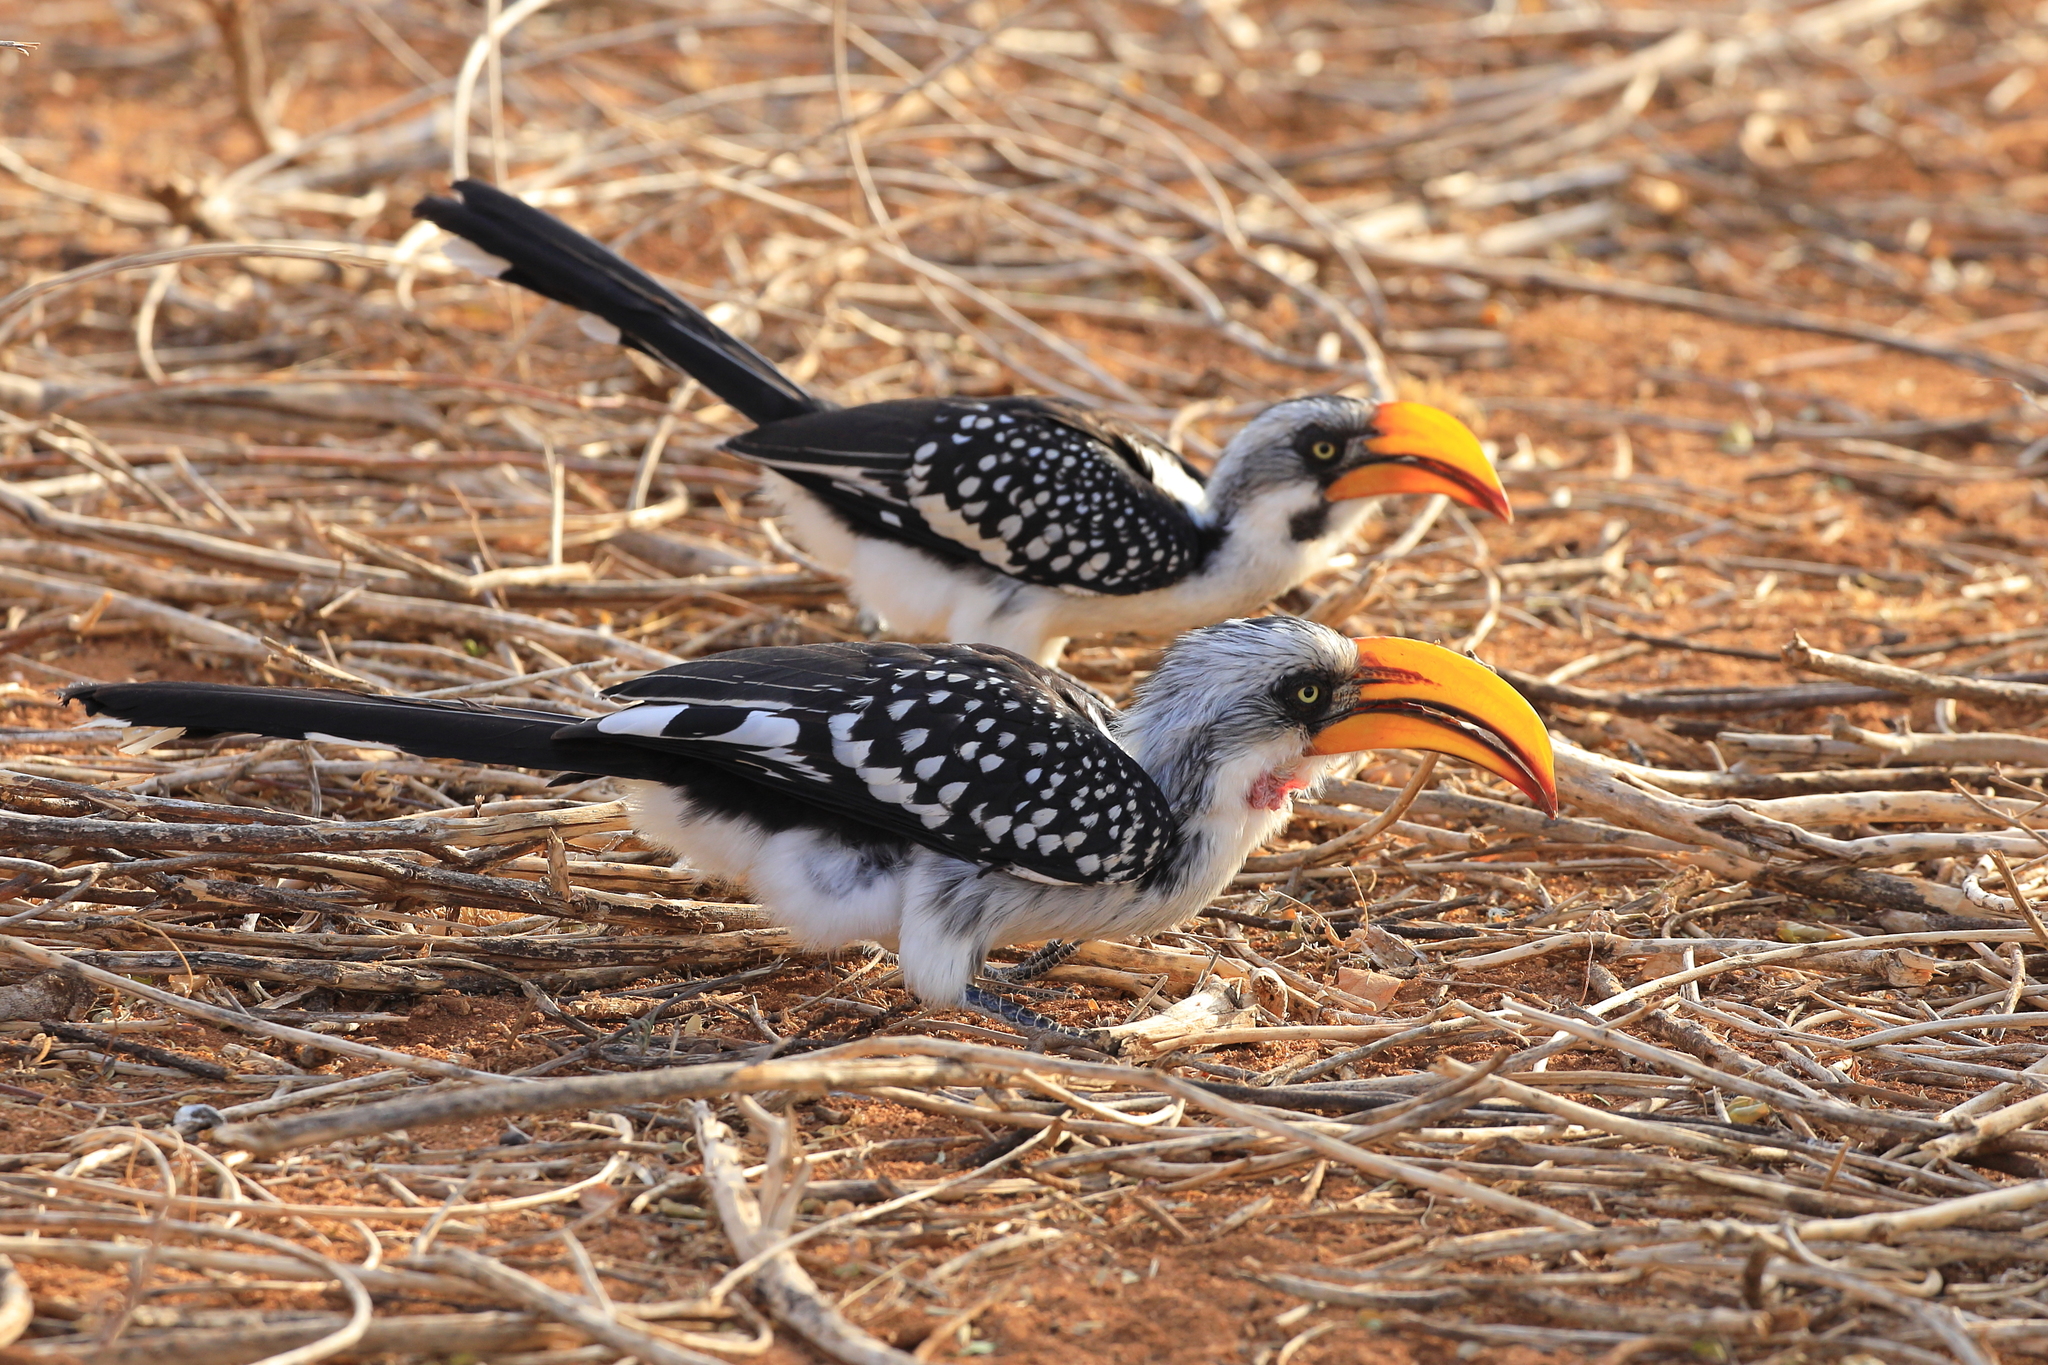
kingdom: Animalia
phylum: Chordata
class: Aves
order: Bucerotiformes
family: Bucerotidae
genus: Tockus
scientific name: Tockus flavirostris
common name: Eastern yellow-billed hornbill
